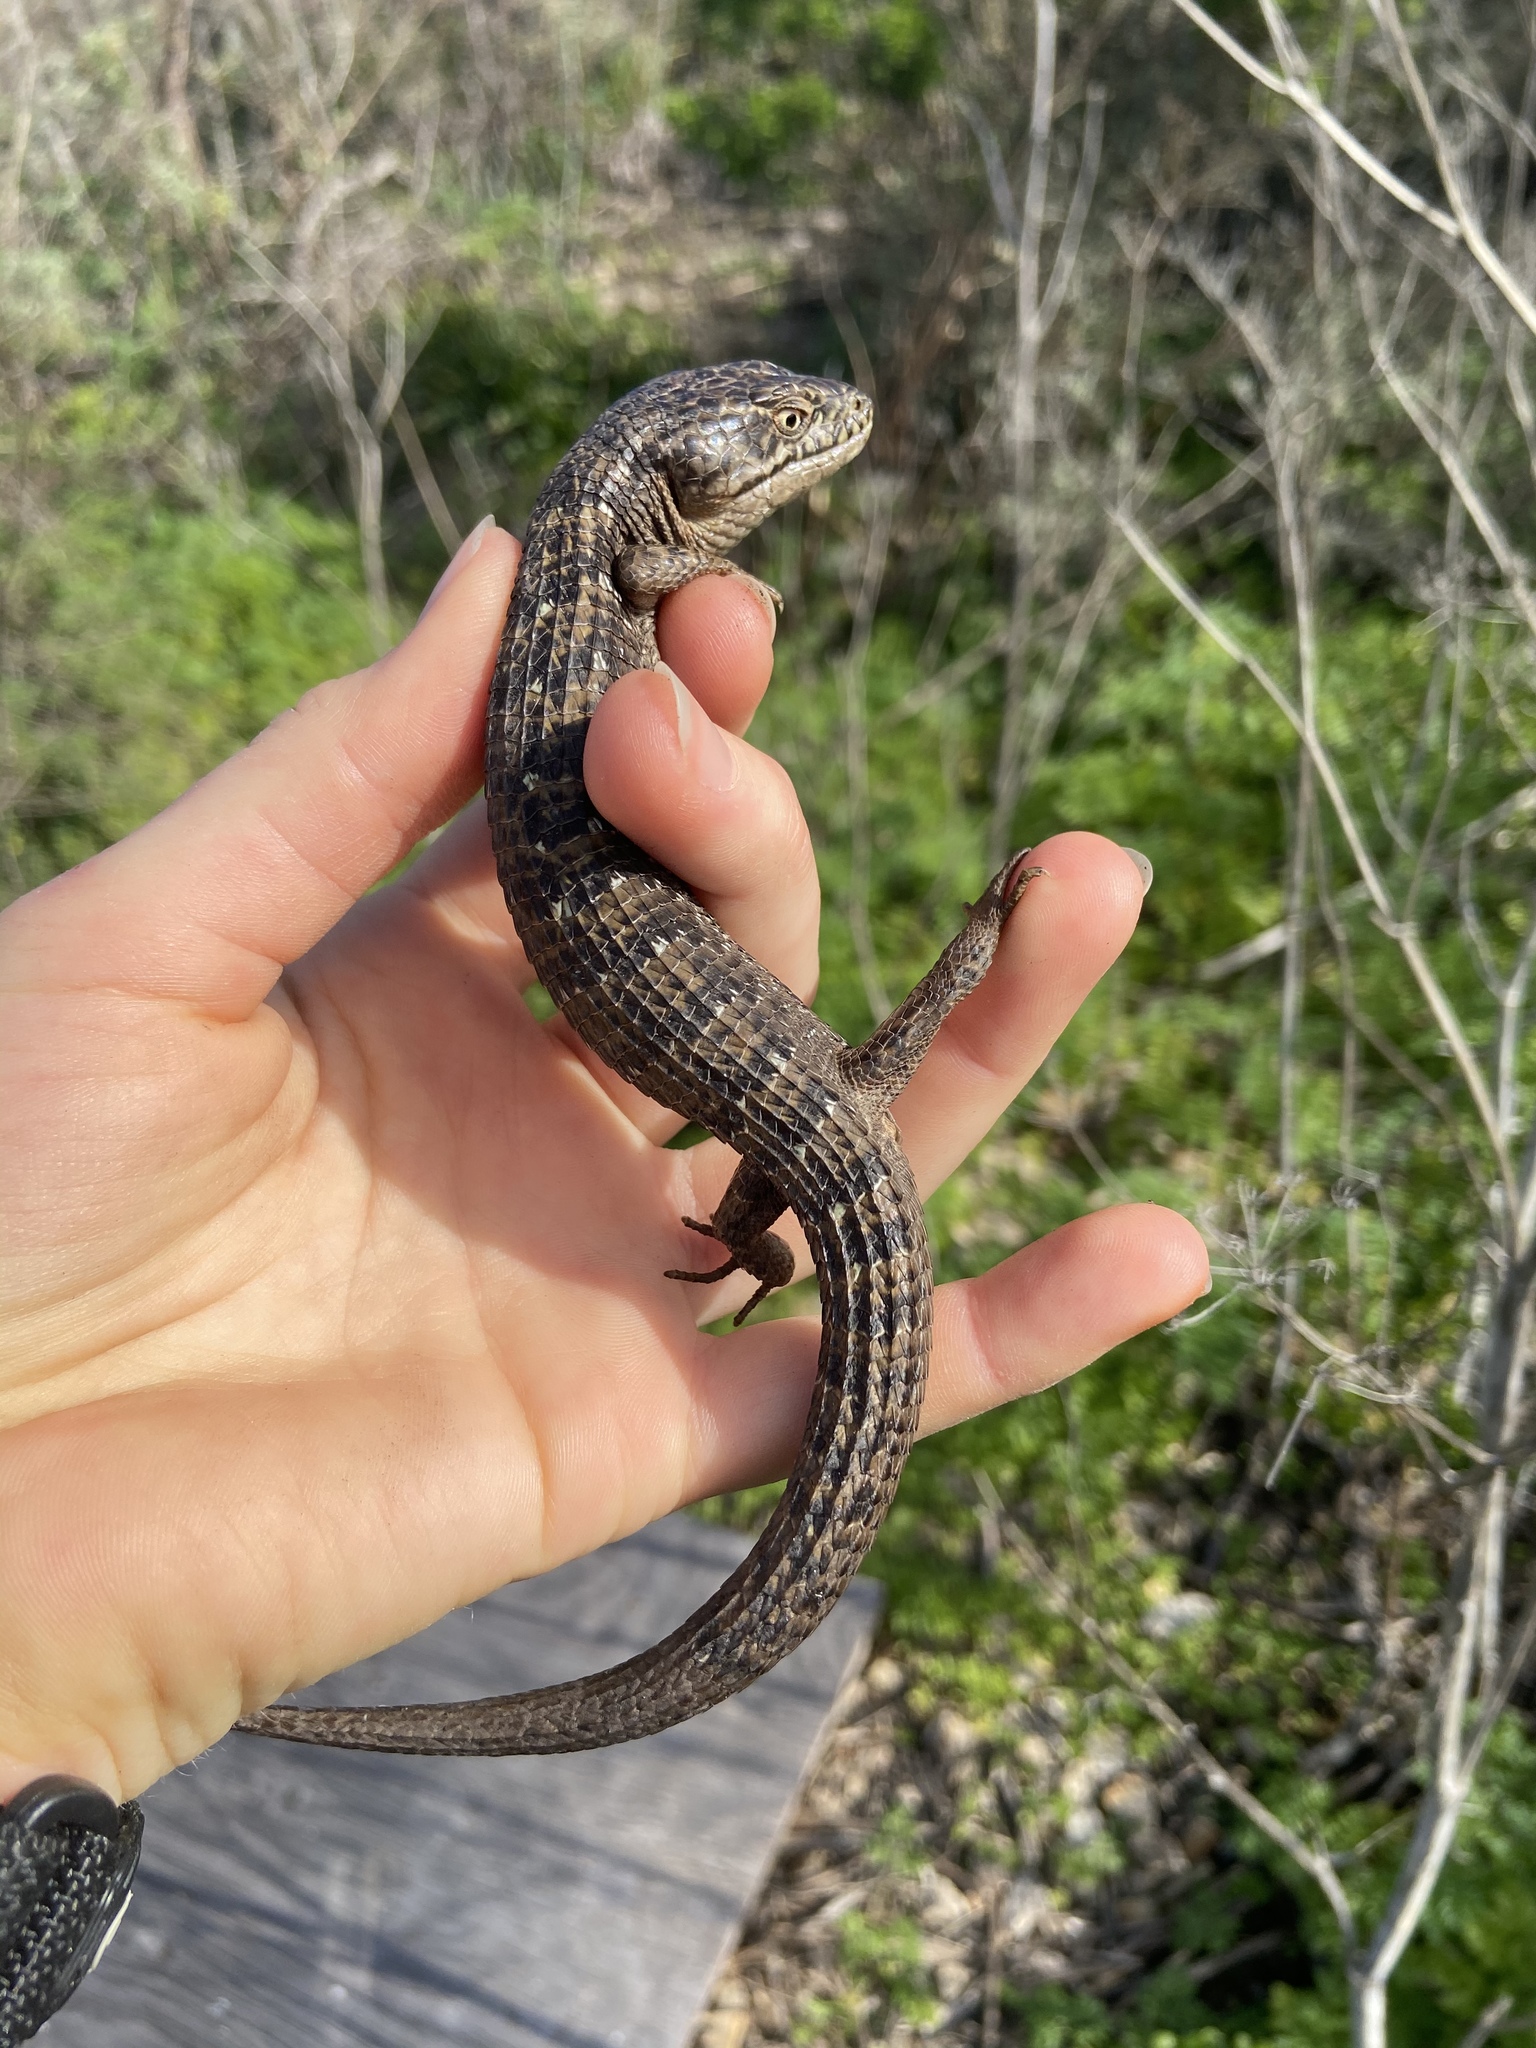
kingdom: Animalia
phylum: Chordata
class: Squamata
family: Anguidae
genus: Elgaria
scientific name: Elgaria multicarinata
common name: Southern alligator lizard
